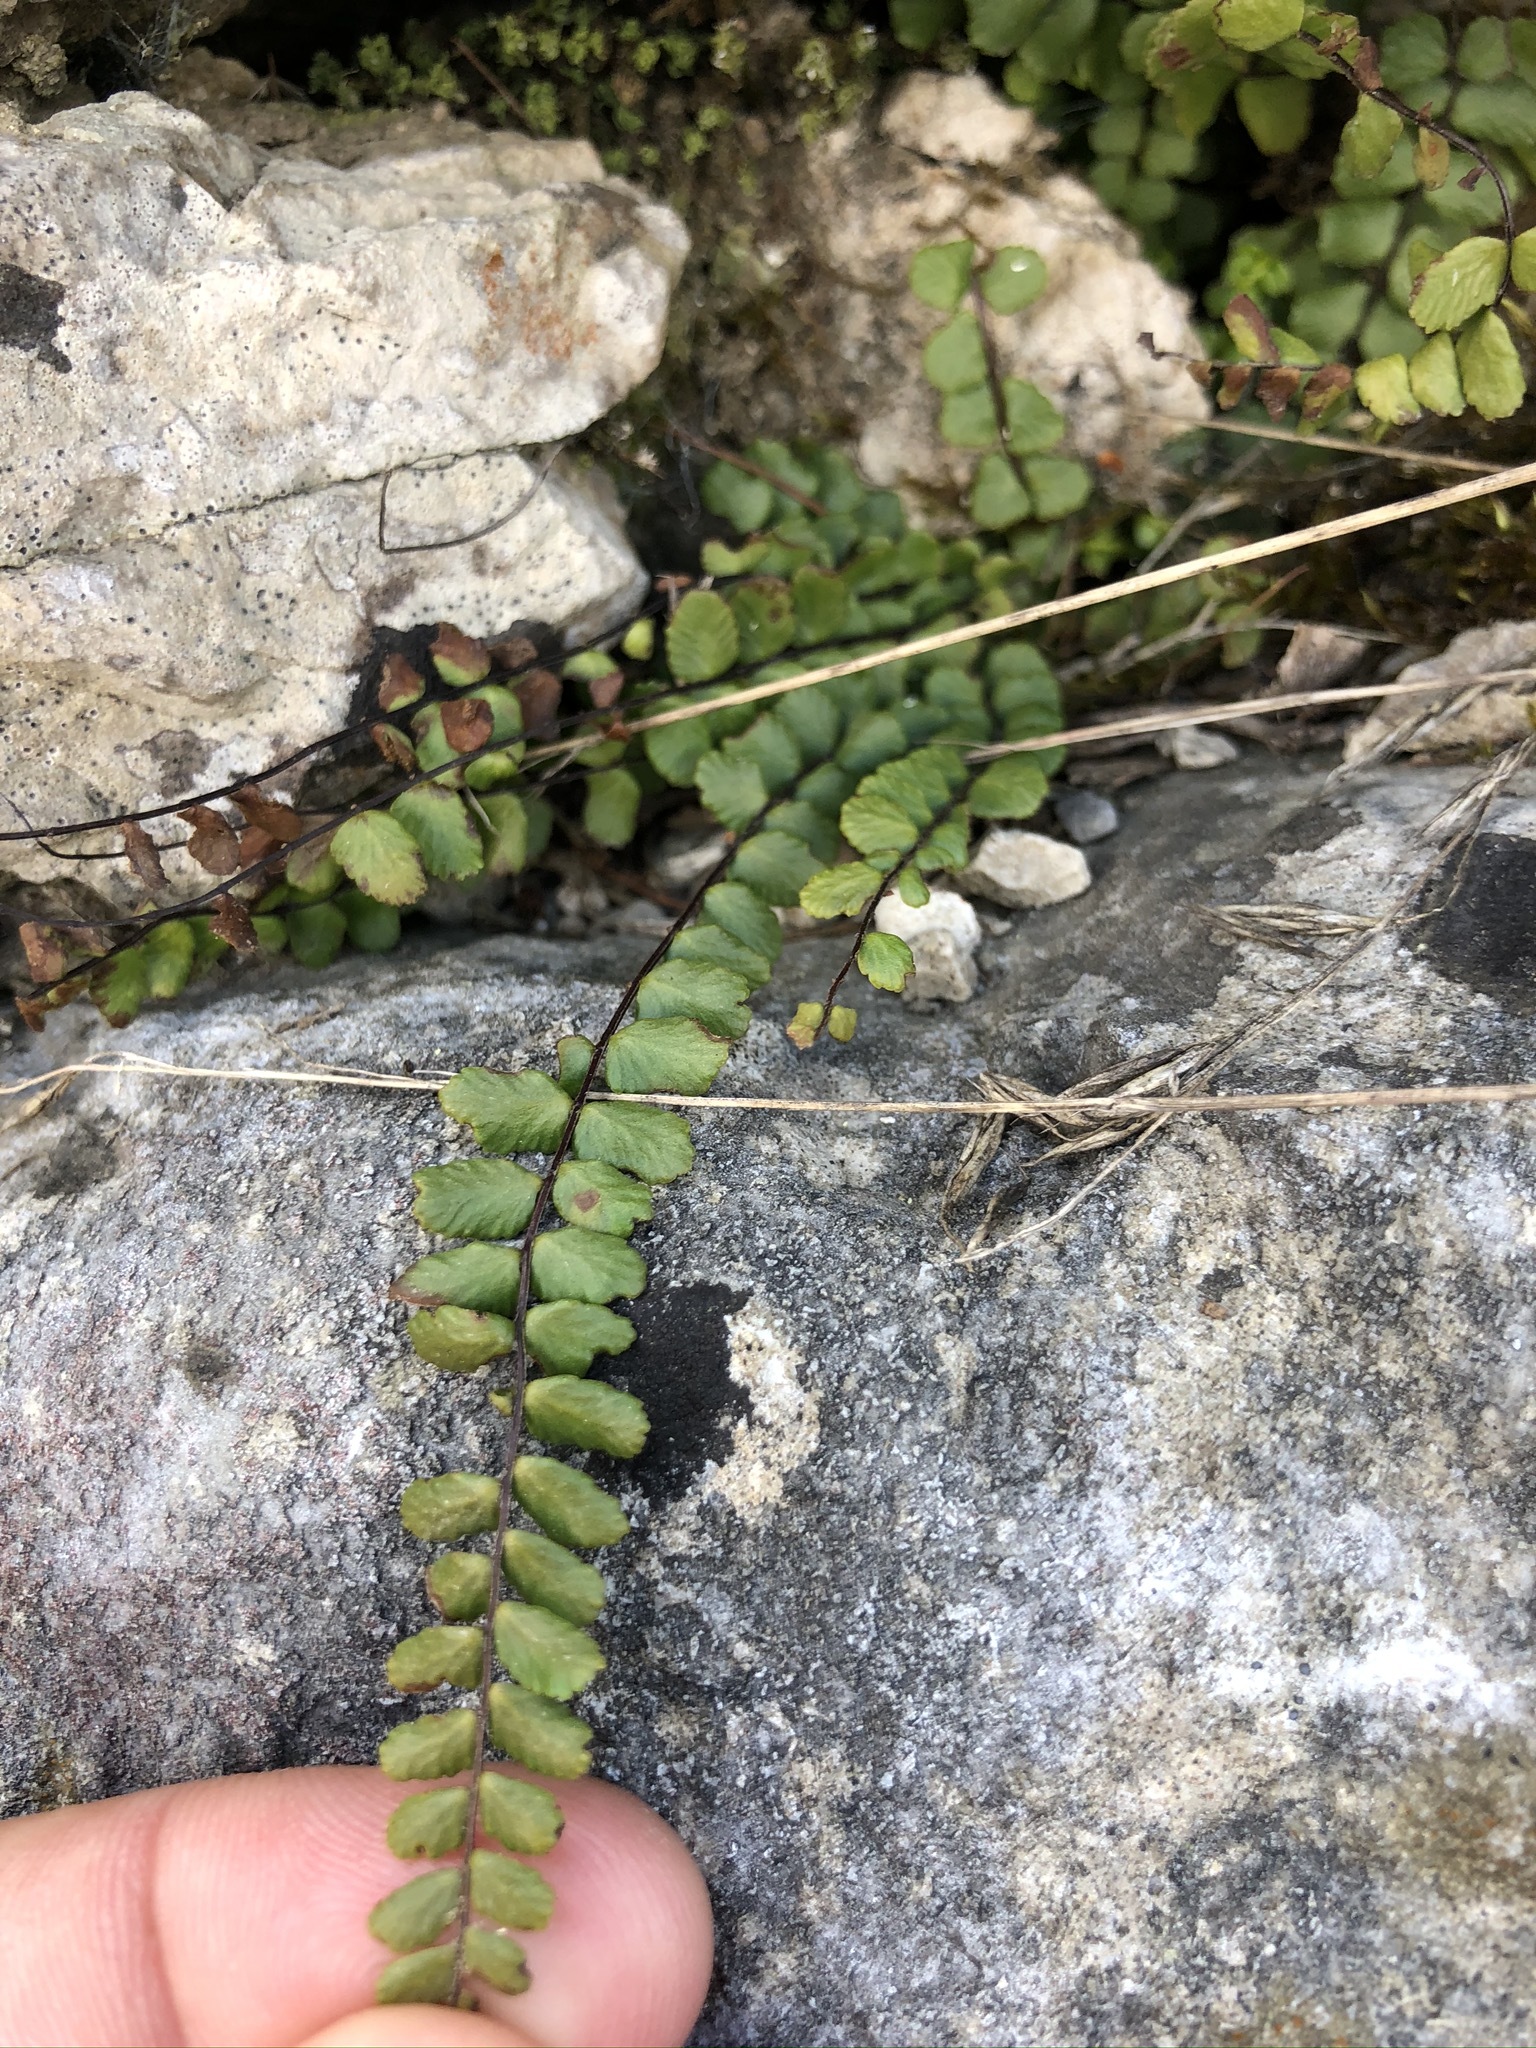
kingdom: Plantae
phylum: Tracheophyta
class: Polypodiopsida
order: Polypodiales
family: Aspleniaceae
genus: Asplenium
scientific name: Asplenium trichomanes
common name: Maidenhair spleenwort
